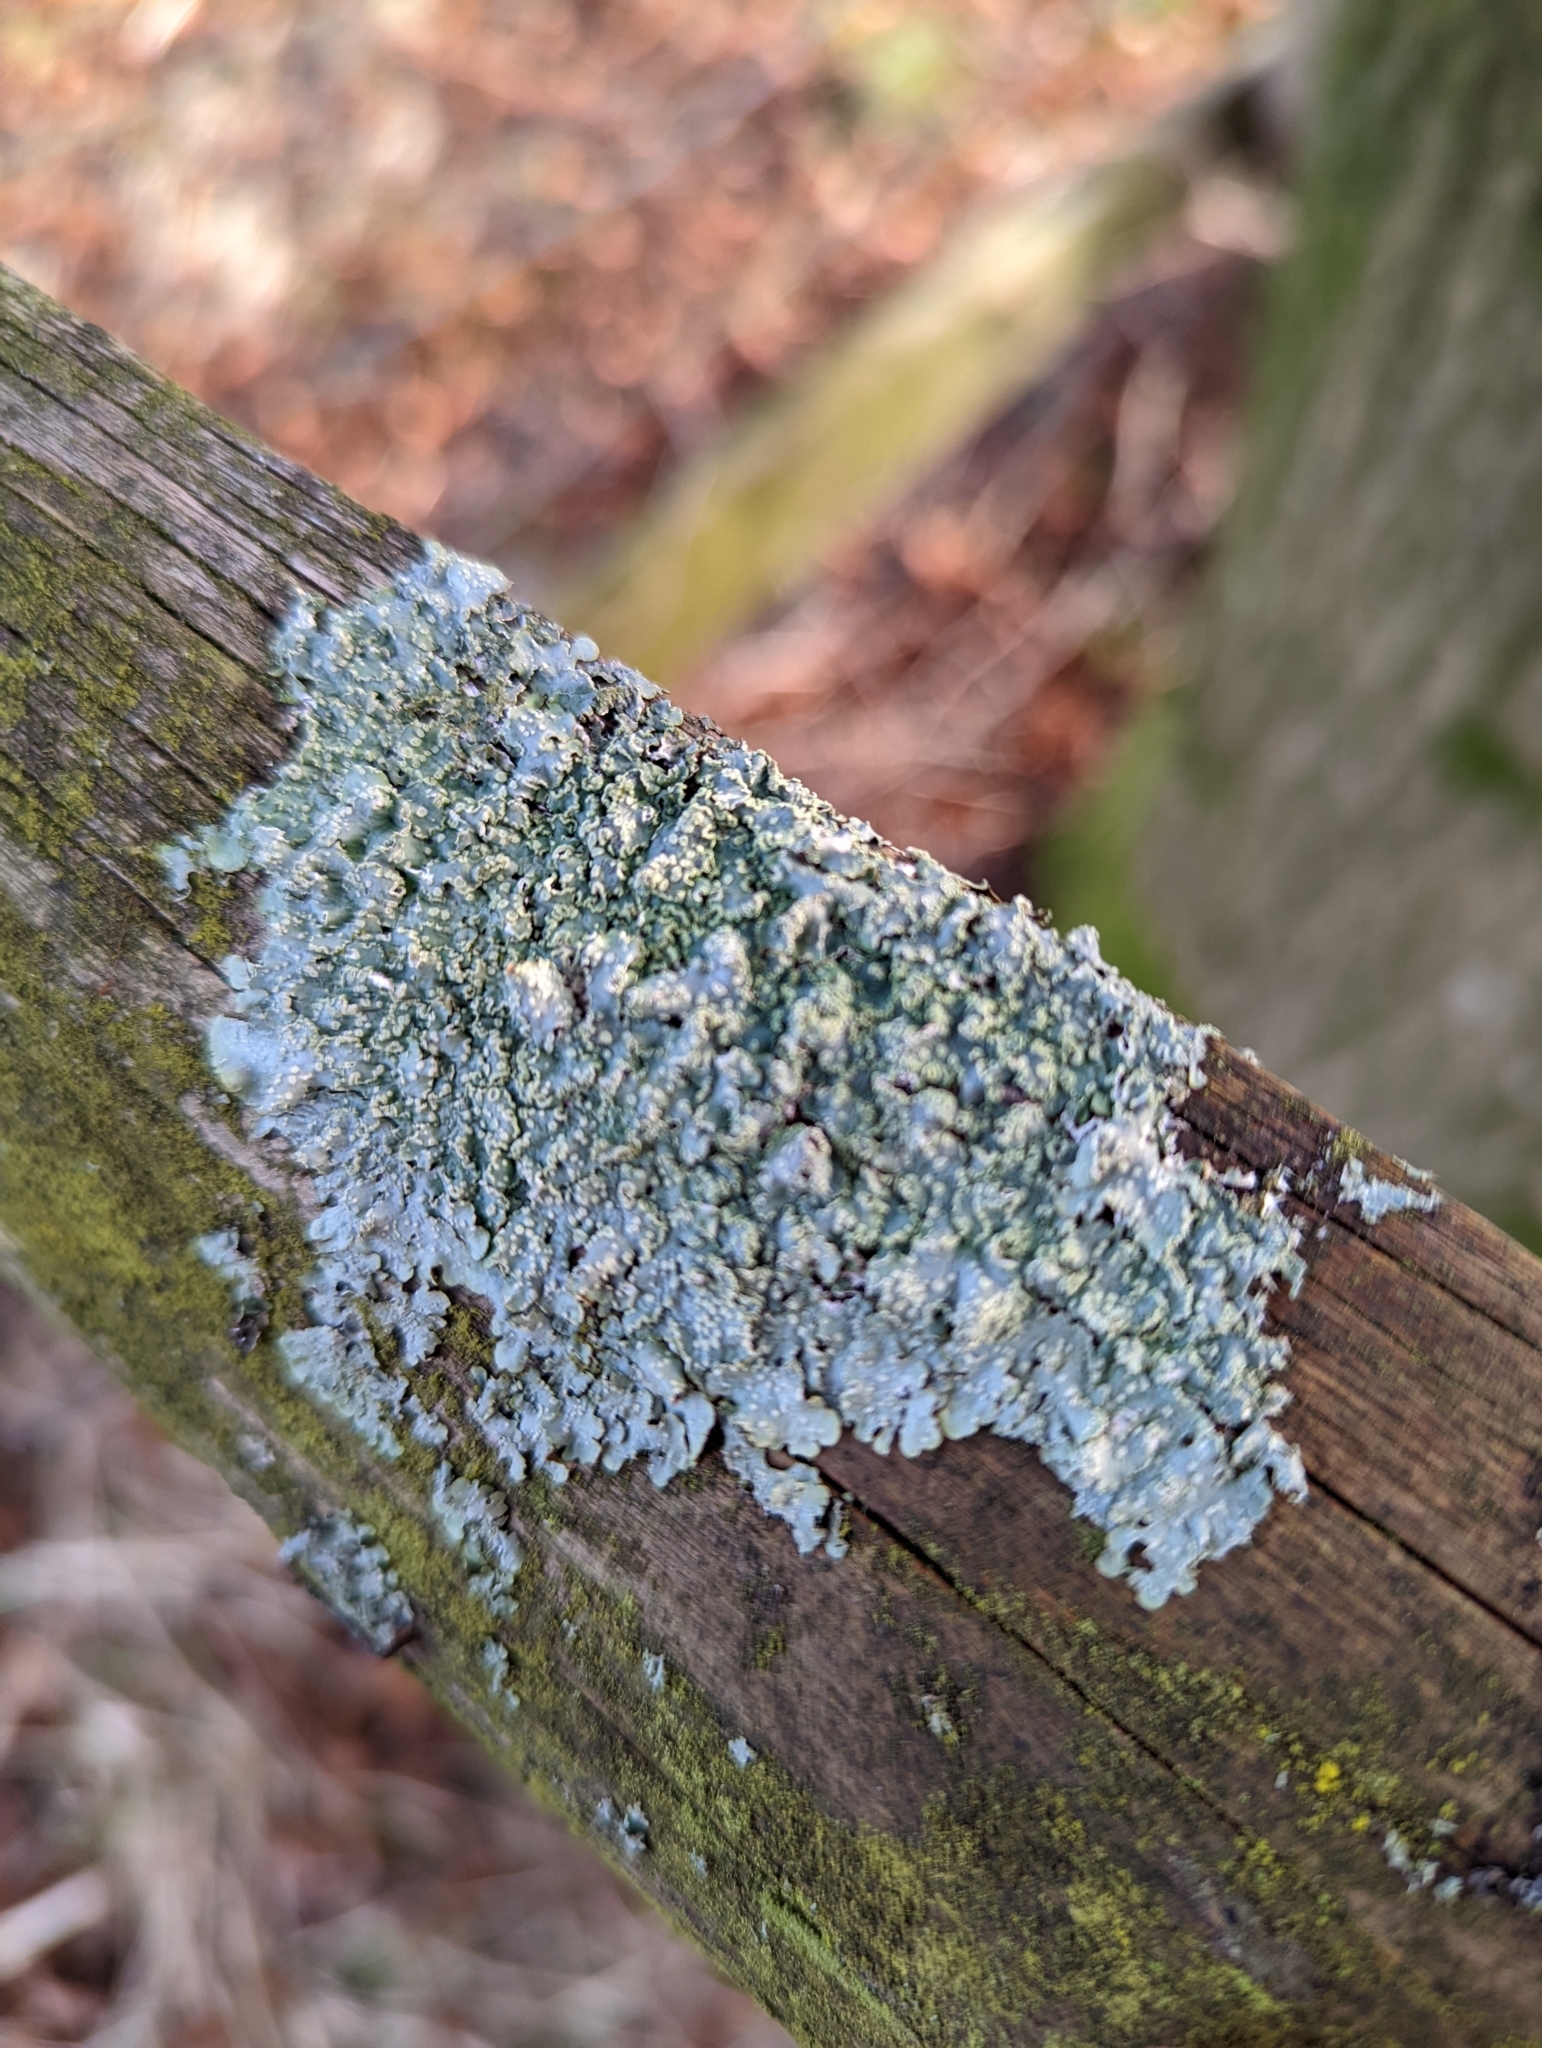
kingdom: Fungi
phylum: Ascomycota
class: Lecanoromycetes
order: Lecanorales
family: Parmeliaceae
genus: Punctelia
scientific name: Punctelia jeckeri
